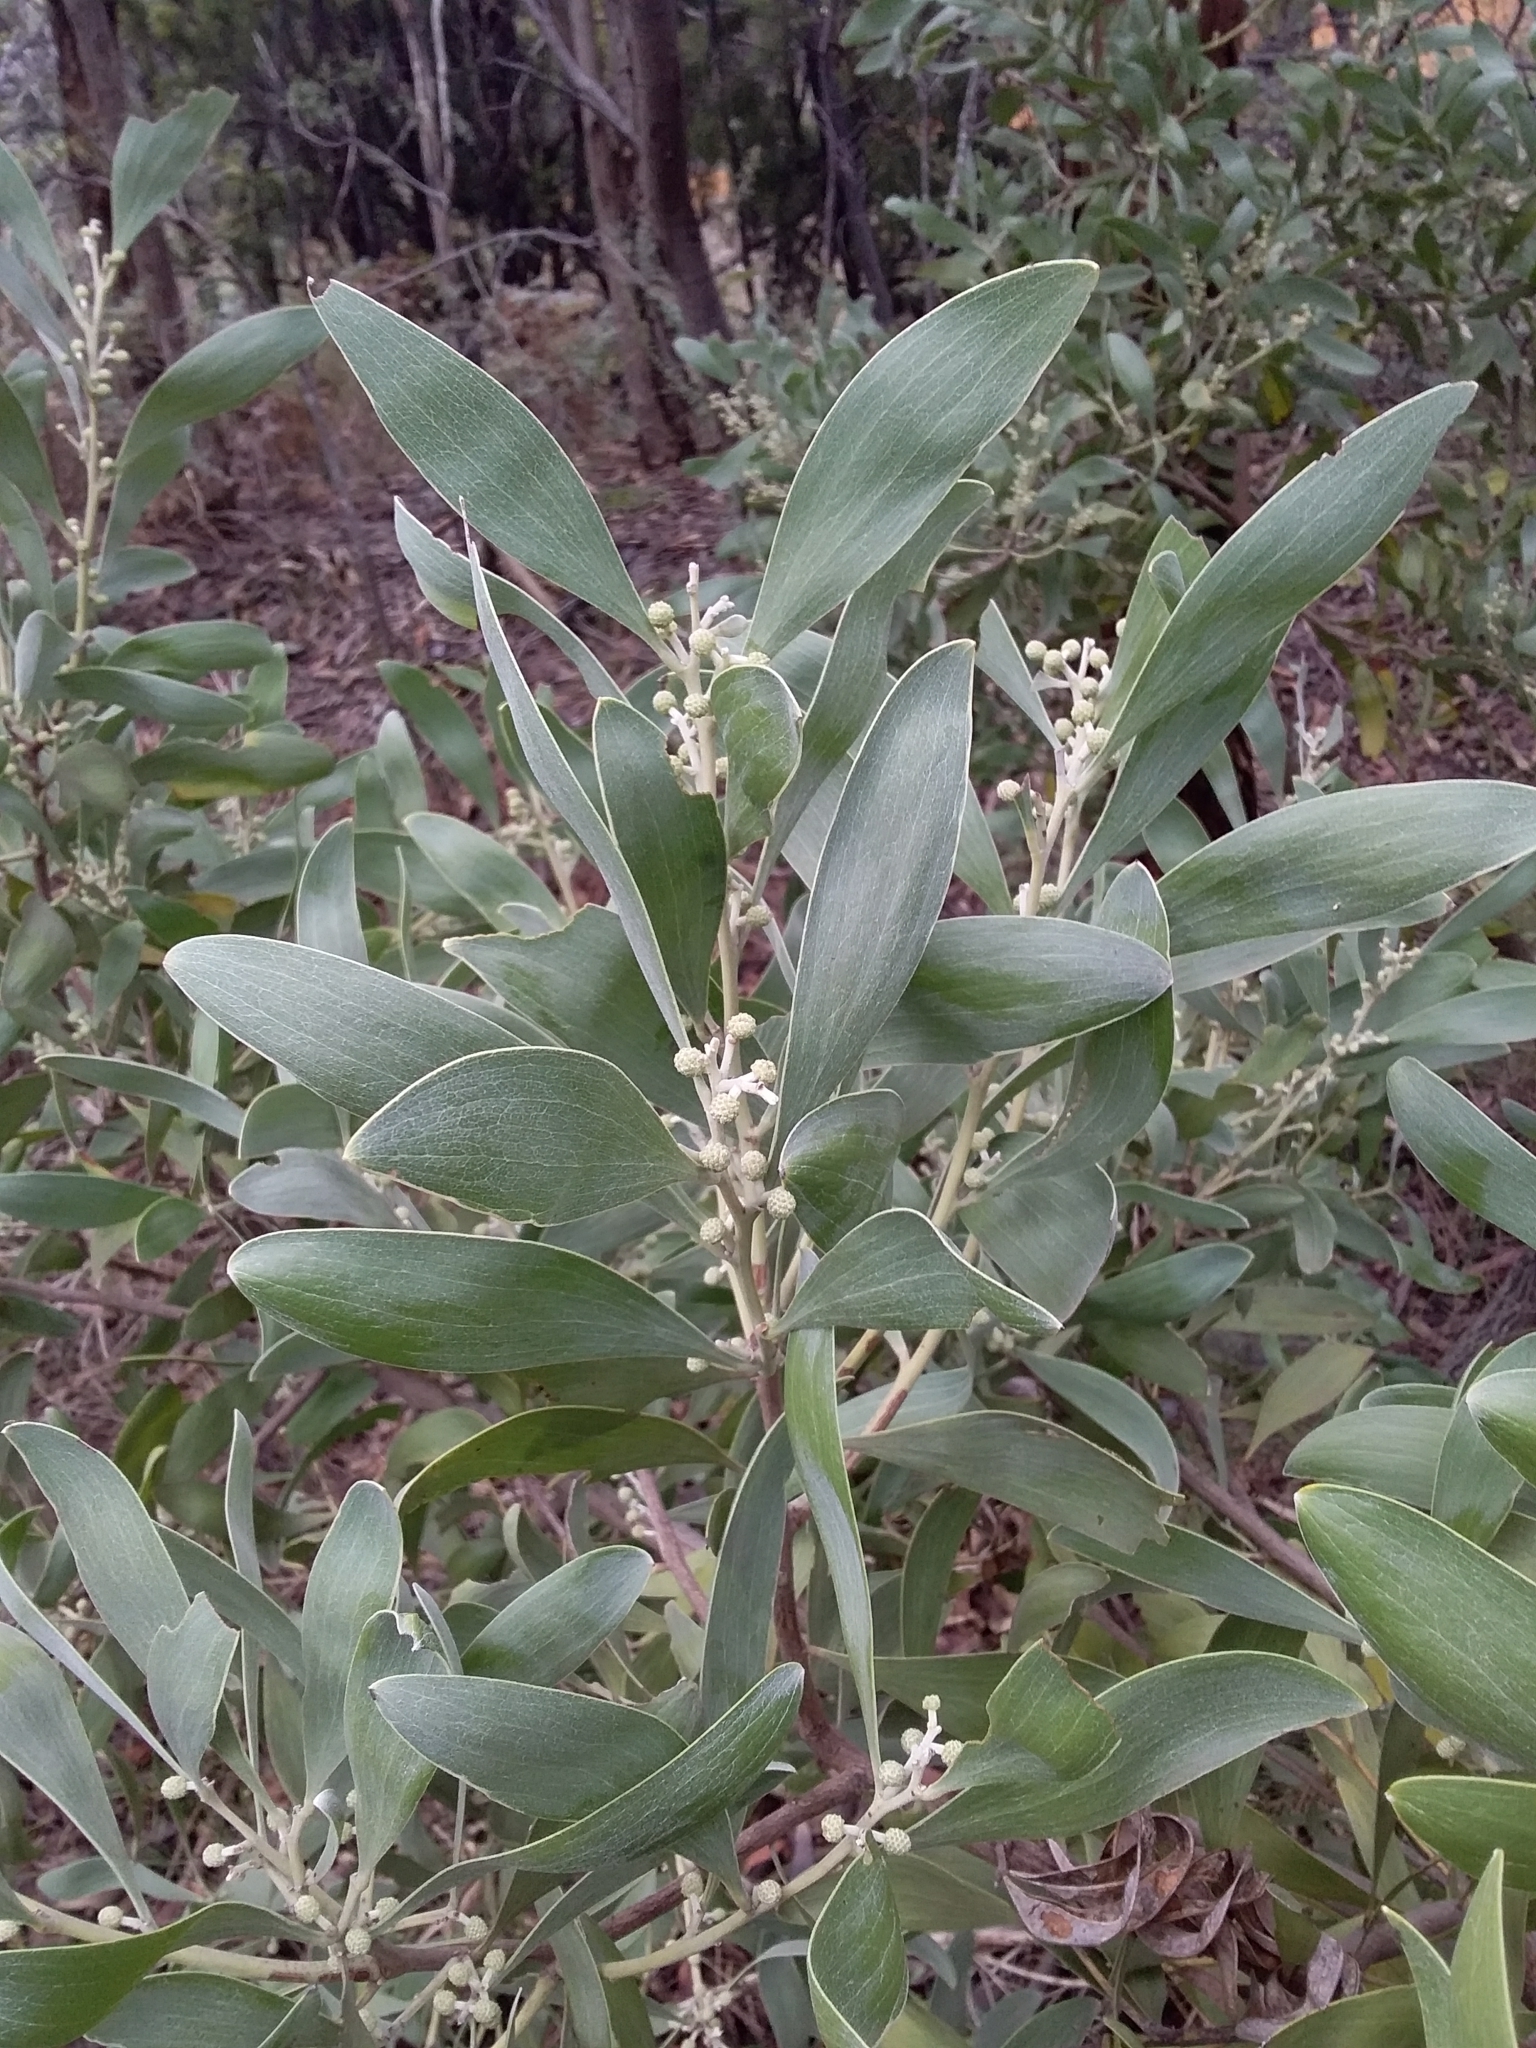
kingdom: Plantae
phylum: Tracheophyta
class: Magnoliopsida
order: Fabales
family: Fabaceae
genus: Acacia
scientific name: Acacia melanoxylon
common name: Blackwood
